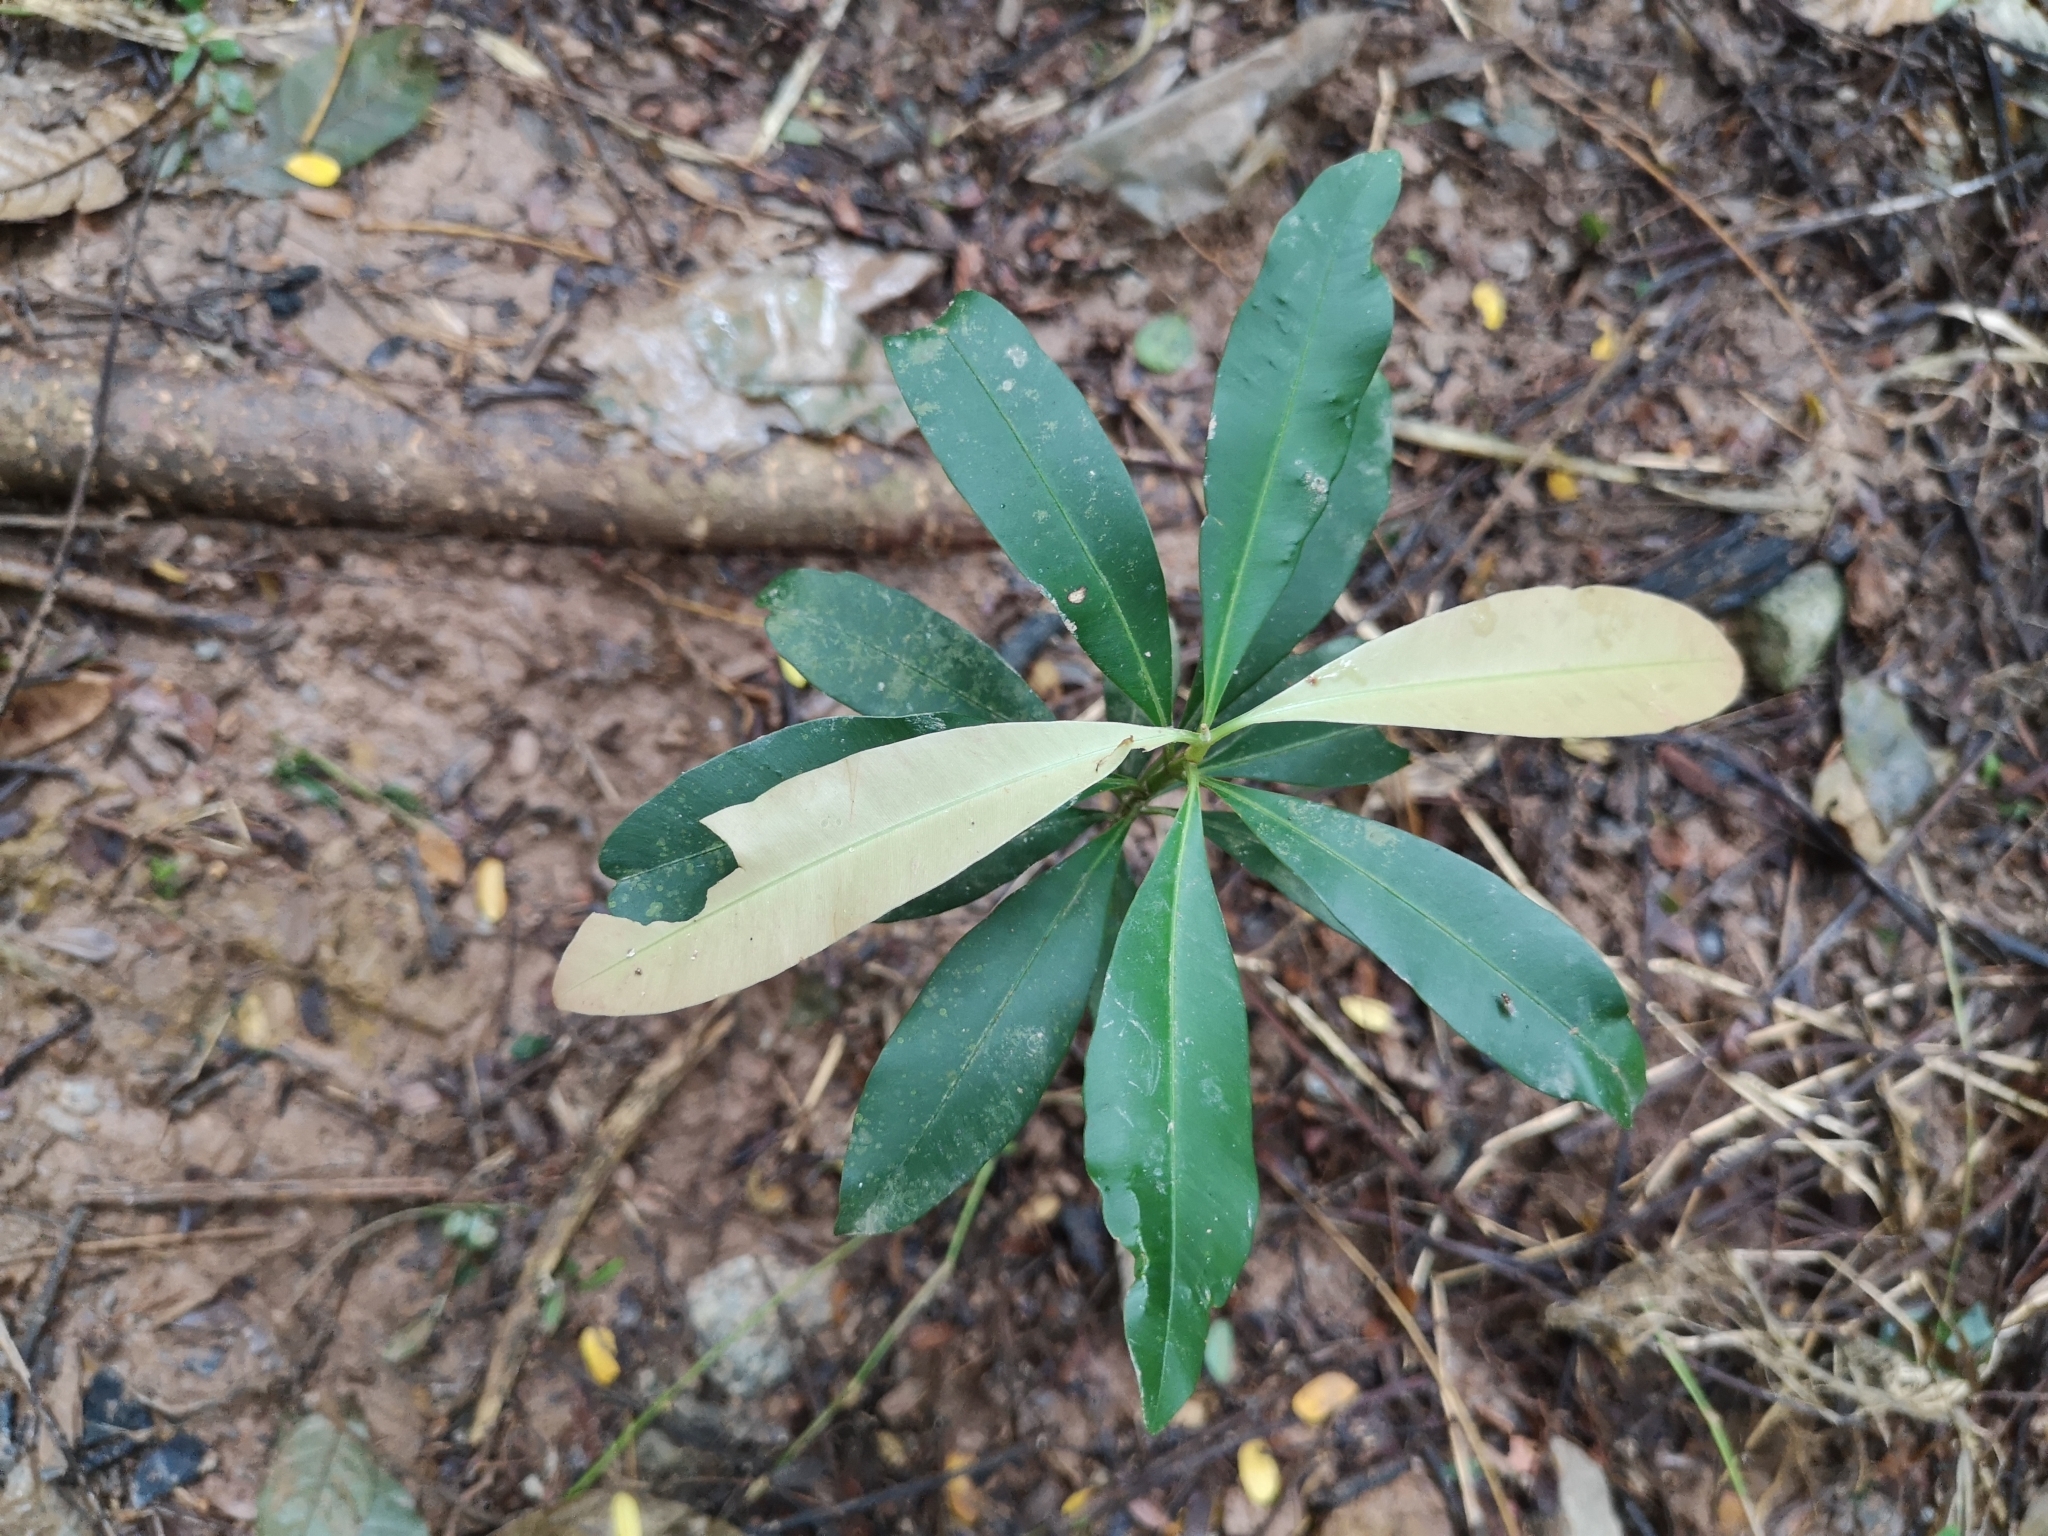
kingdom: Plantae
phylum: Tracheophyta
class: Magnoliopsida
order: Malpighiales
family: Calophyllaceae
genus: Calophyllum
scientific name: Calophyllum rufigemmatum
